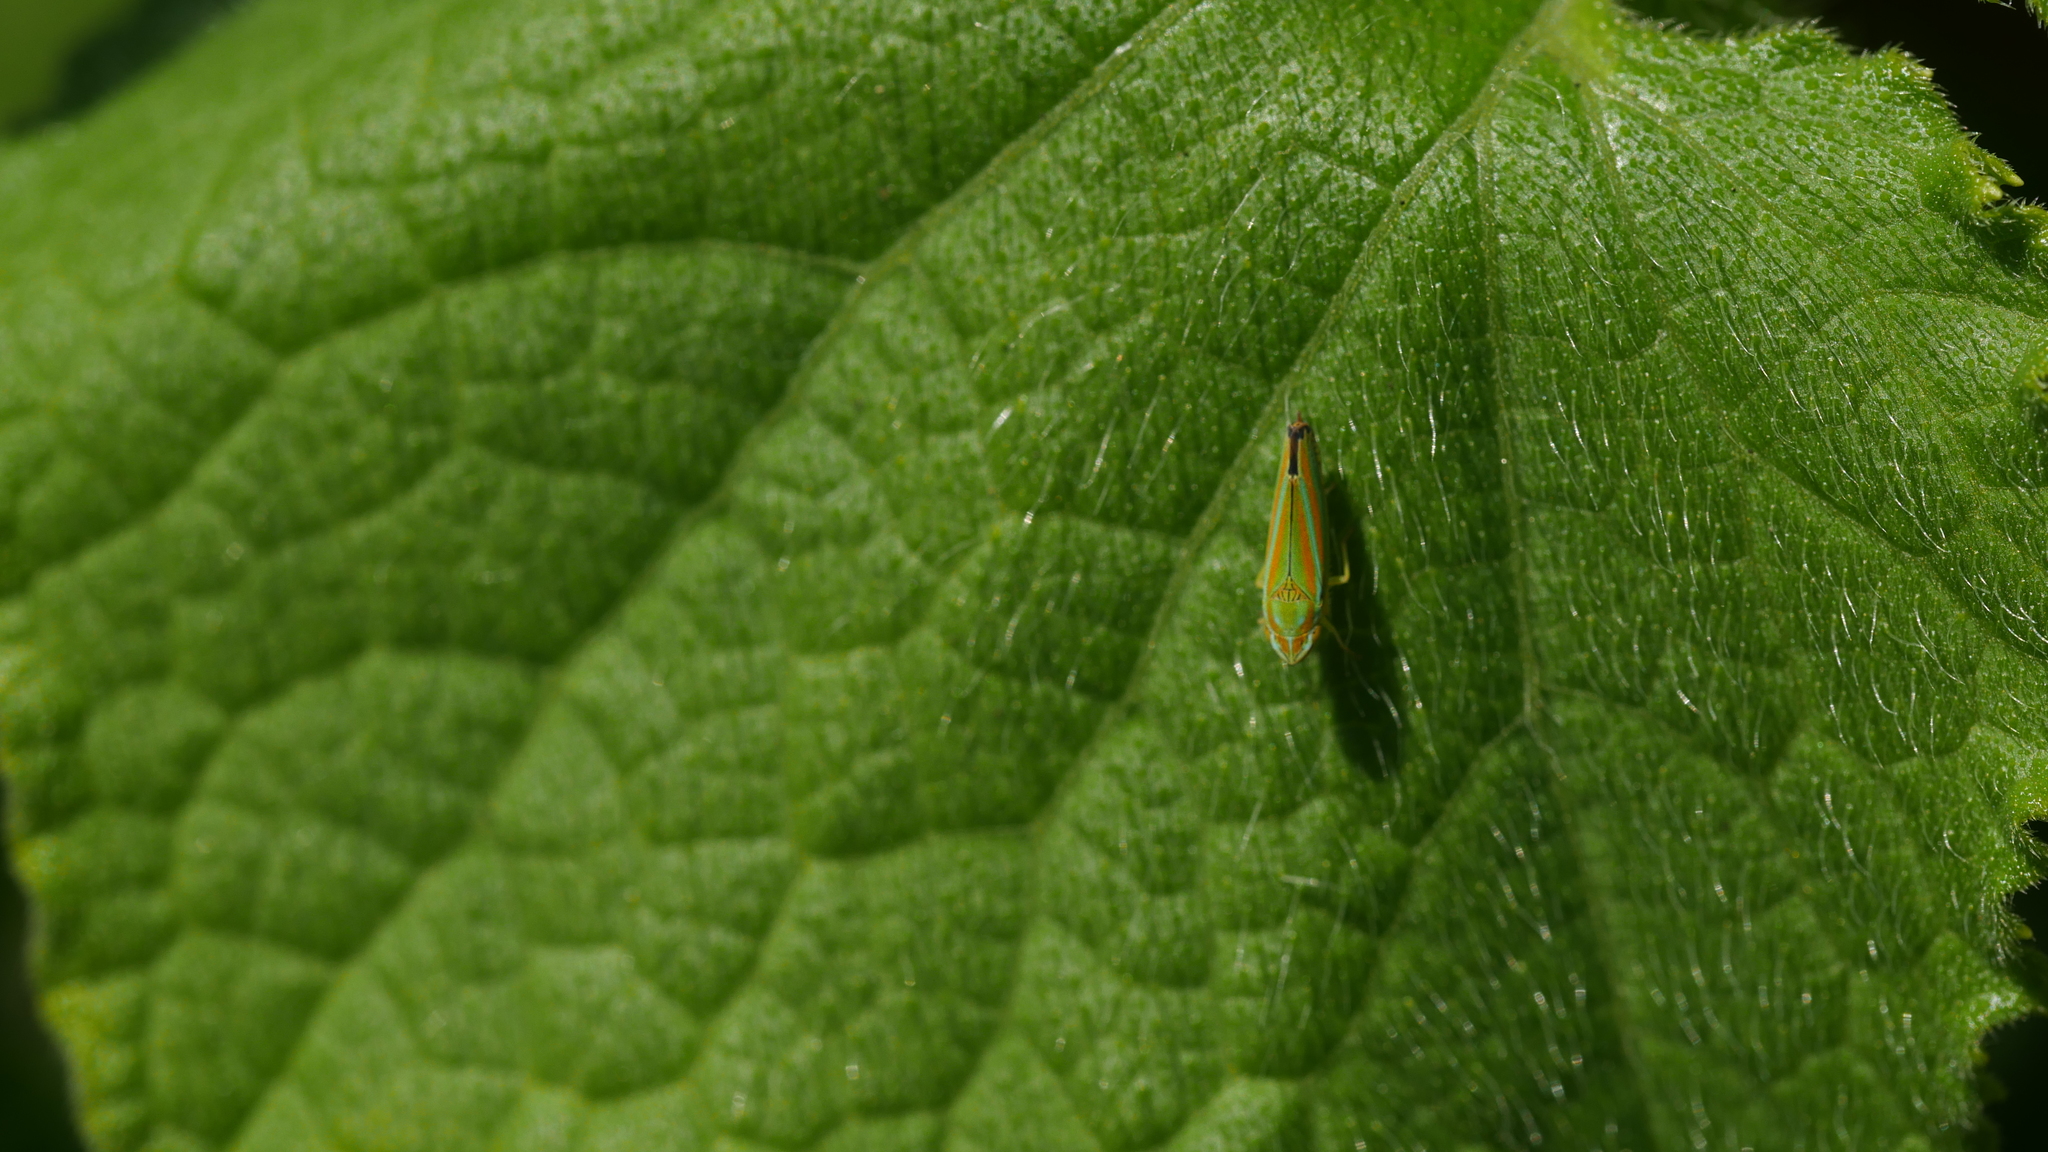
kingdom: Animalia
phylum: Arthropoda
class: Insecta
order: Hemiptera
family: Cicadellidae
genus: Graphocephala
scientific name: Graphocephala versuta
